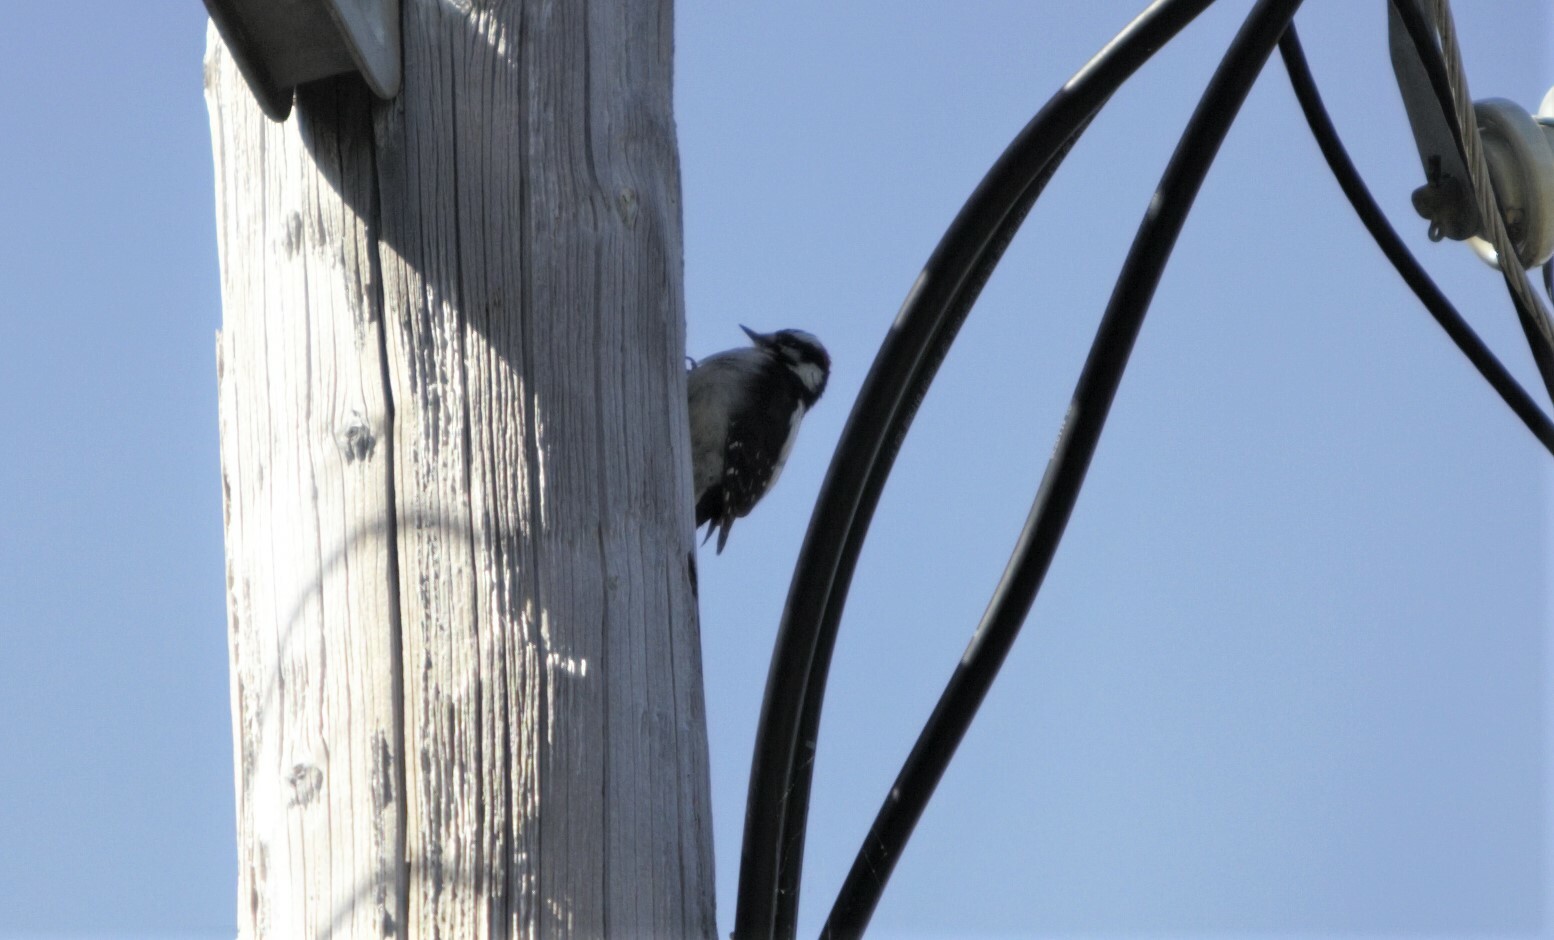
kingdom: Animalia
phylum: Chordata
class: Aves
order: Piciformes
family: Picidae
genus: Dryobates
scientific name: Dryobates pubescens
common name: Downy woodpecker
